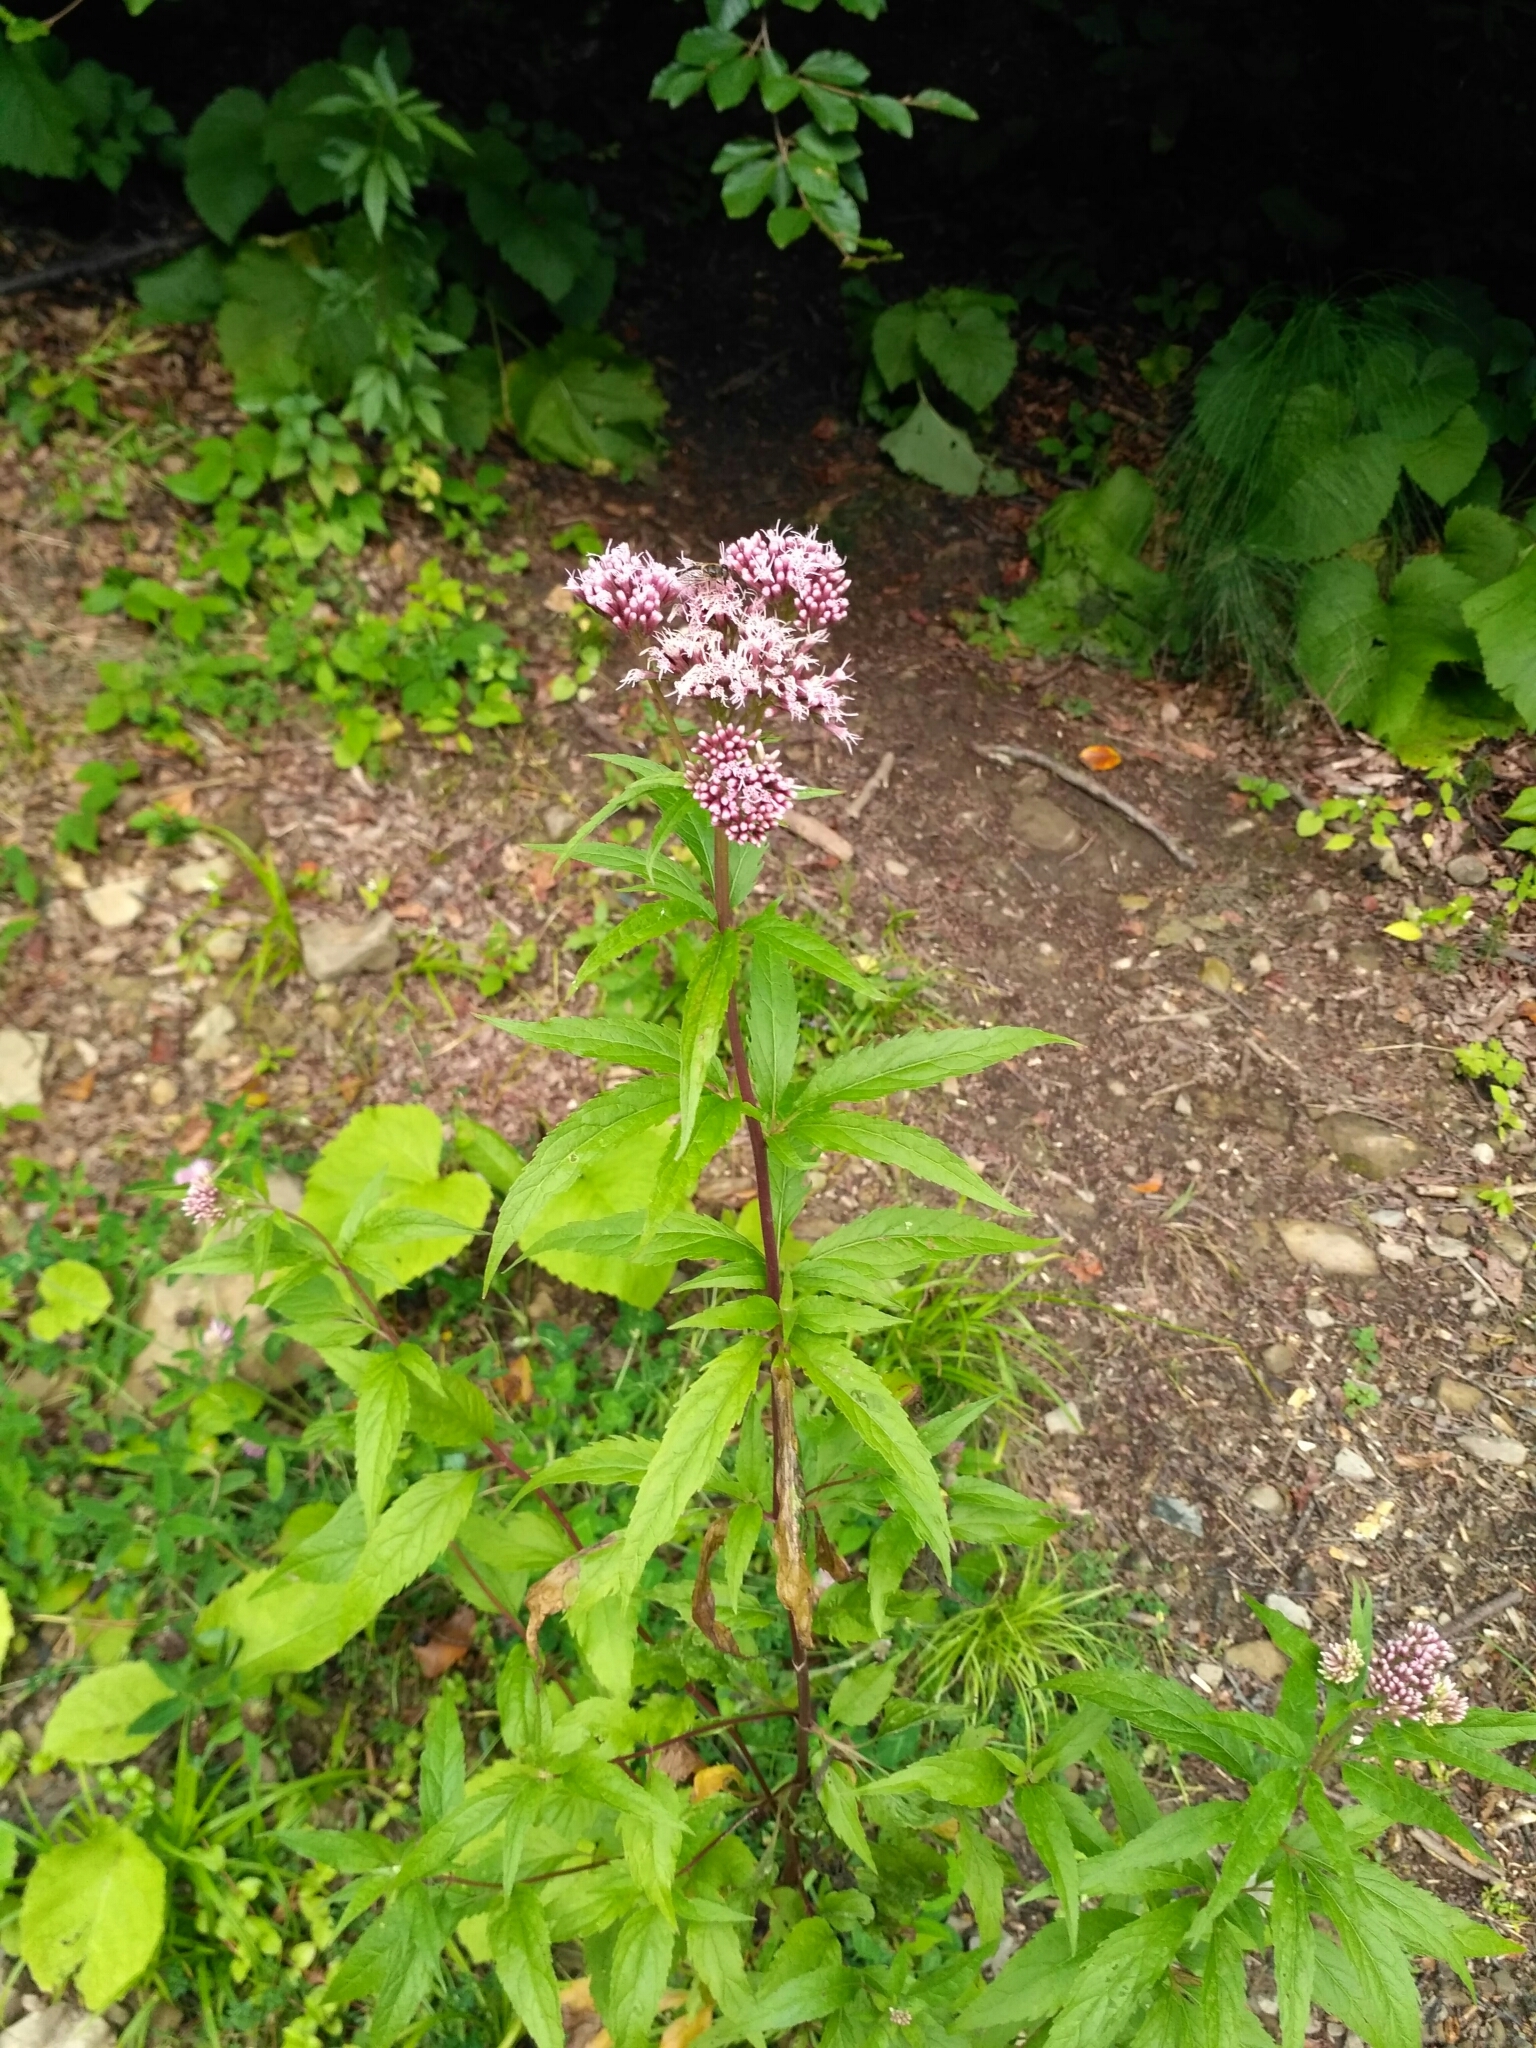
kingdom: Plantae
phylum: Tracheophyta
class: Magnoliopsida
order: Asterales
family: Asteraceae
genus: Eupatorium
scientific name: Eupatorium cannabinum
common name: Hemp-agrimony
